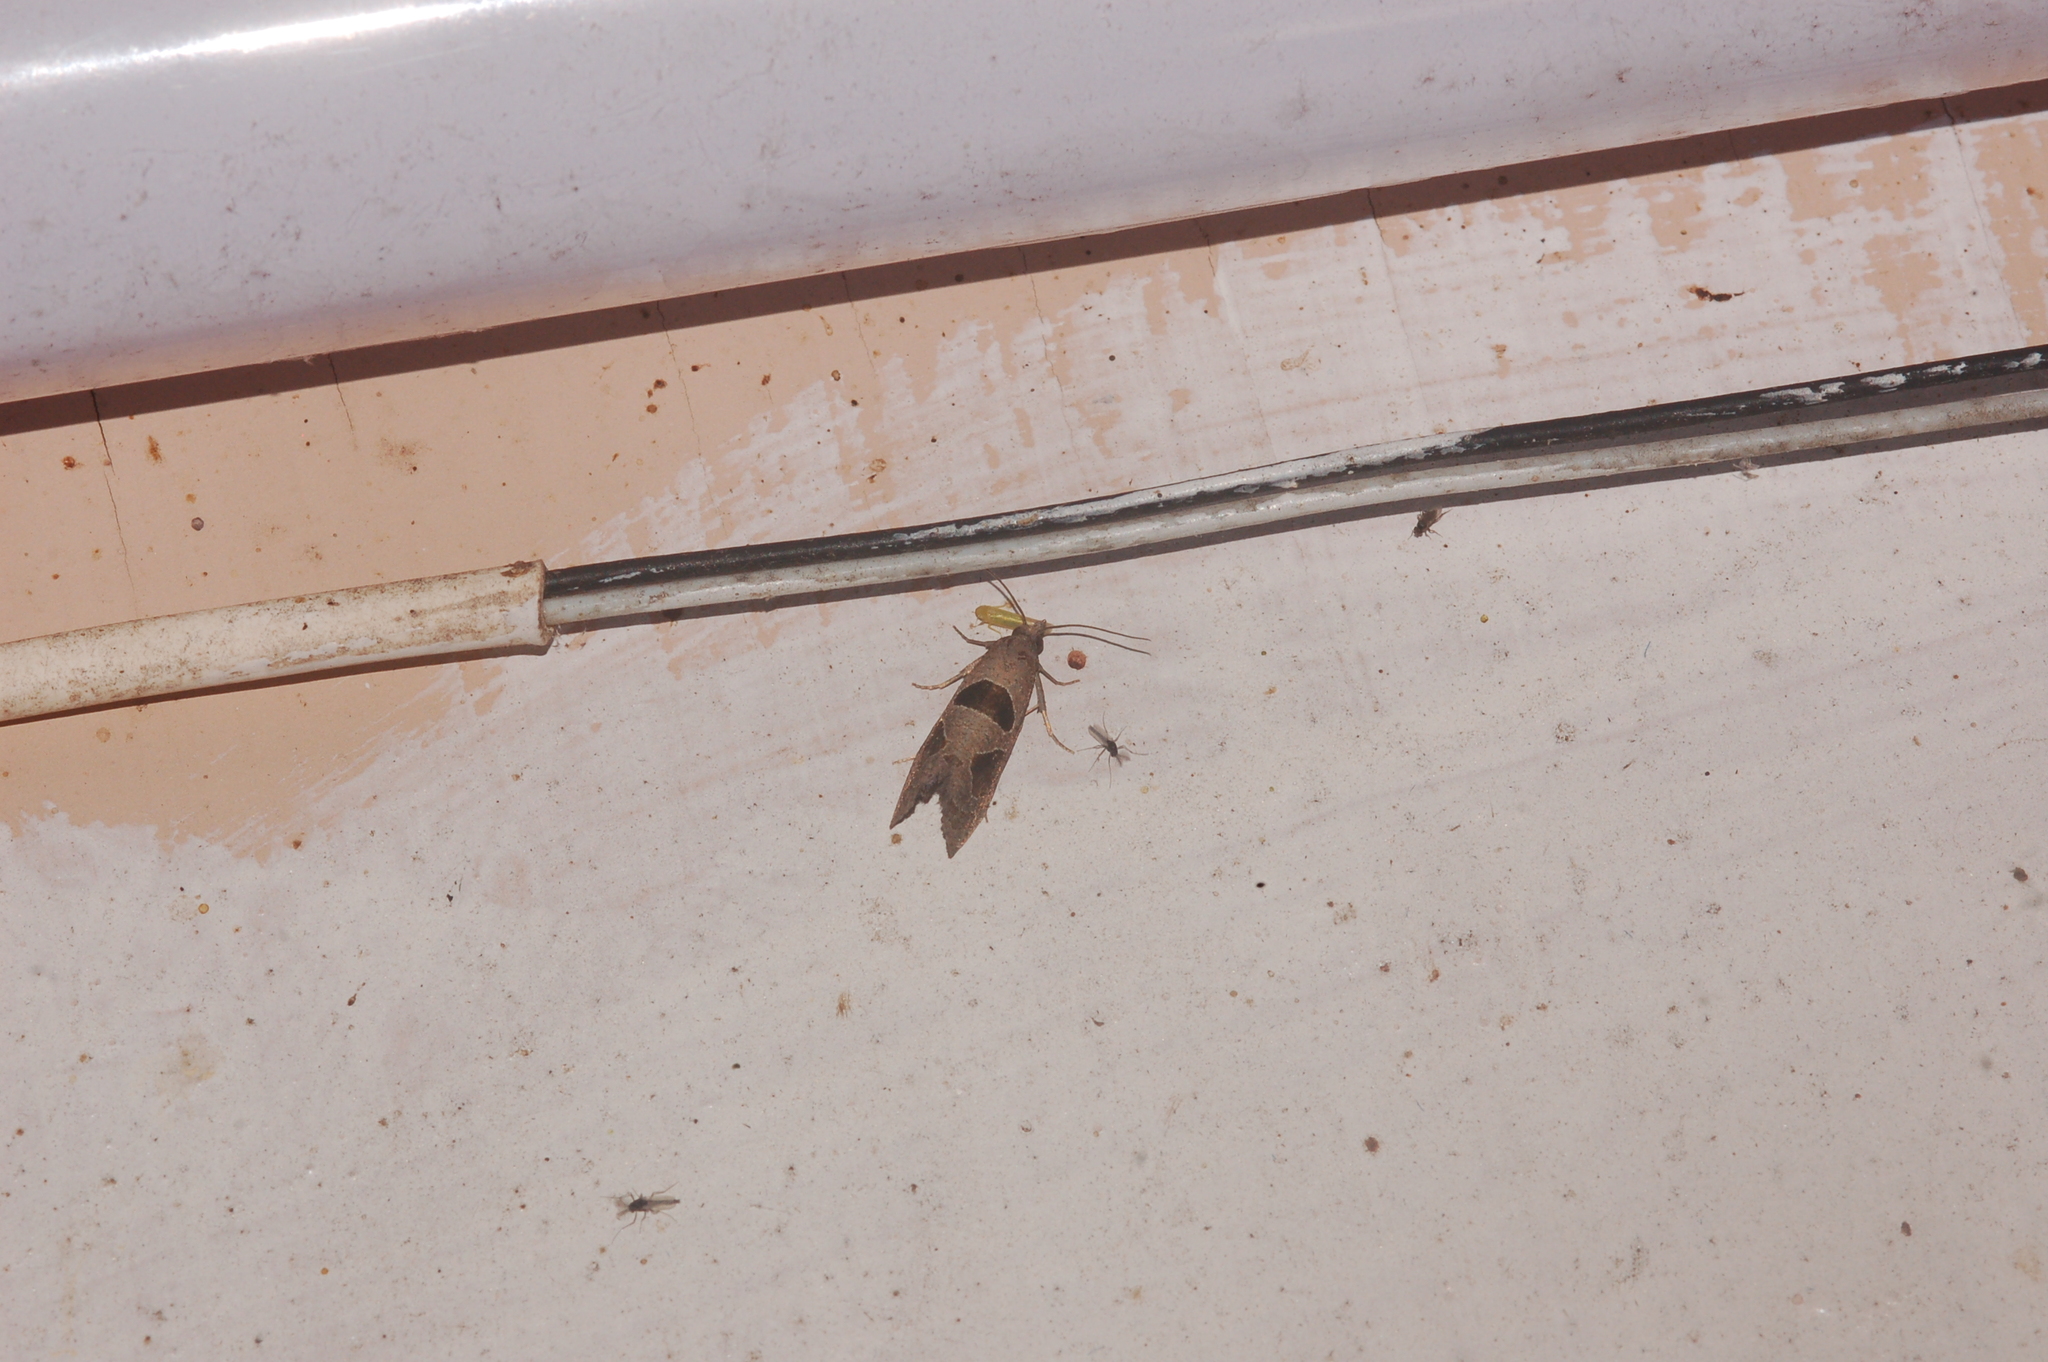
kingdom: Animalia
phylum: Arthropoda
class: Insecta
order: Lepidoptera
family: Tortricidae
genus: Pelochrista
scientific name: Pelochrista dorsisignatana
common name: Triangle-backed pelochrista moth
